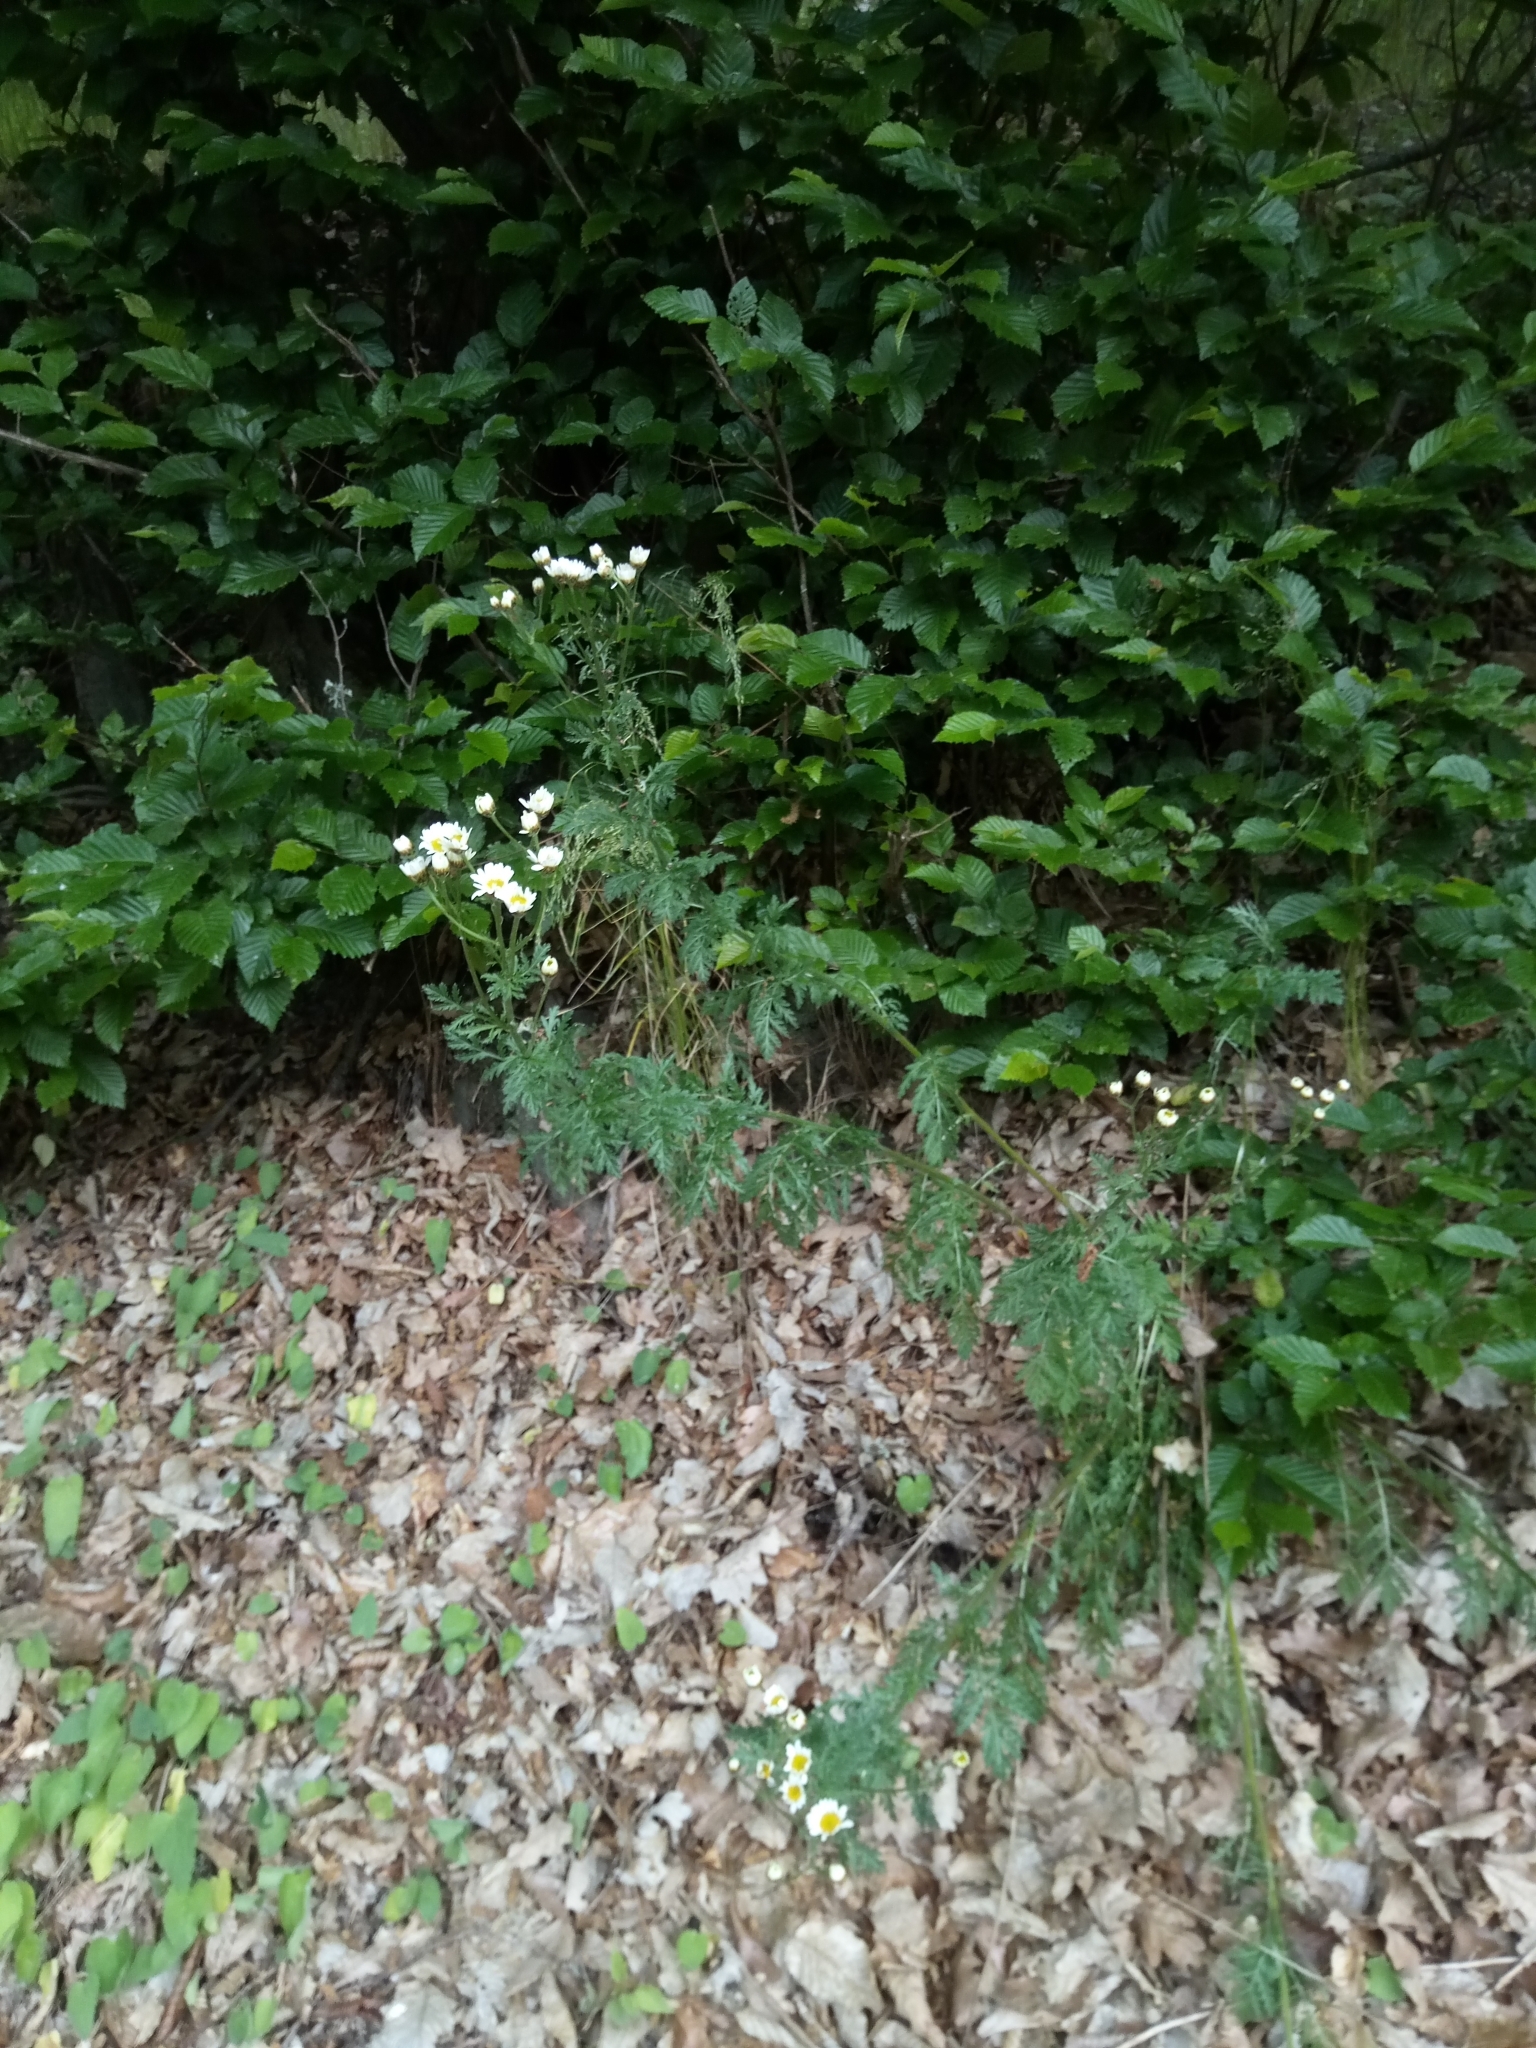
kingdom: Plantae
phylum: Tracheophyta
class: Magnoliopsida
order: Asterales
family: Asteraceae
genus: Tanacetum
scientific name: Tanacetum corymbosum
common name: Scentless feverfew
